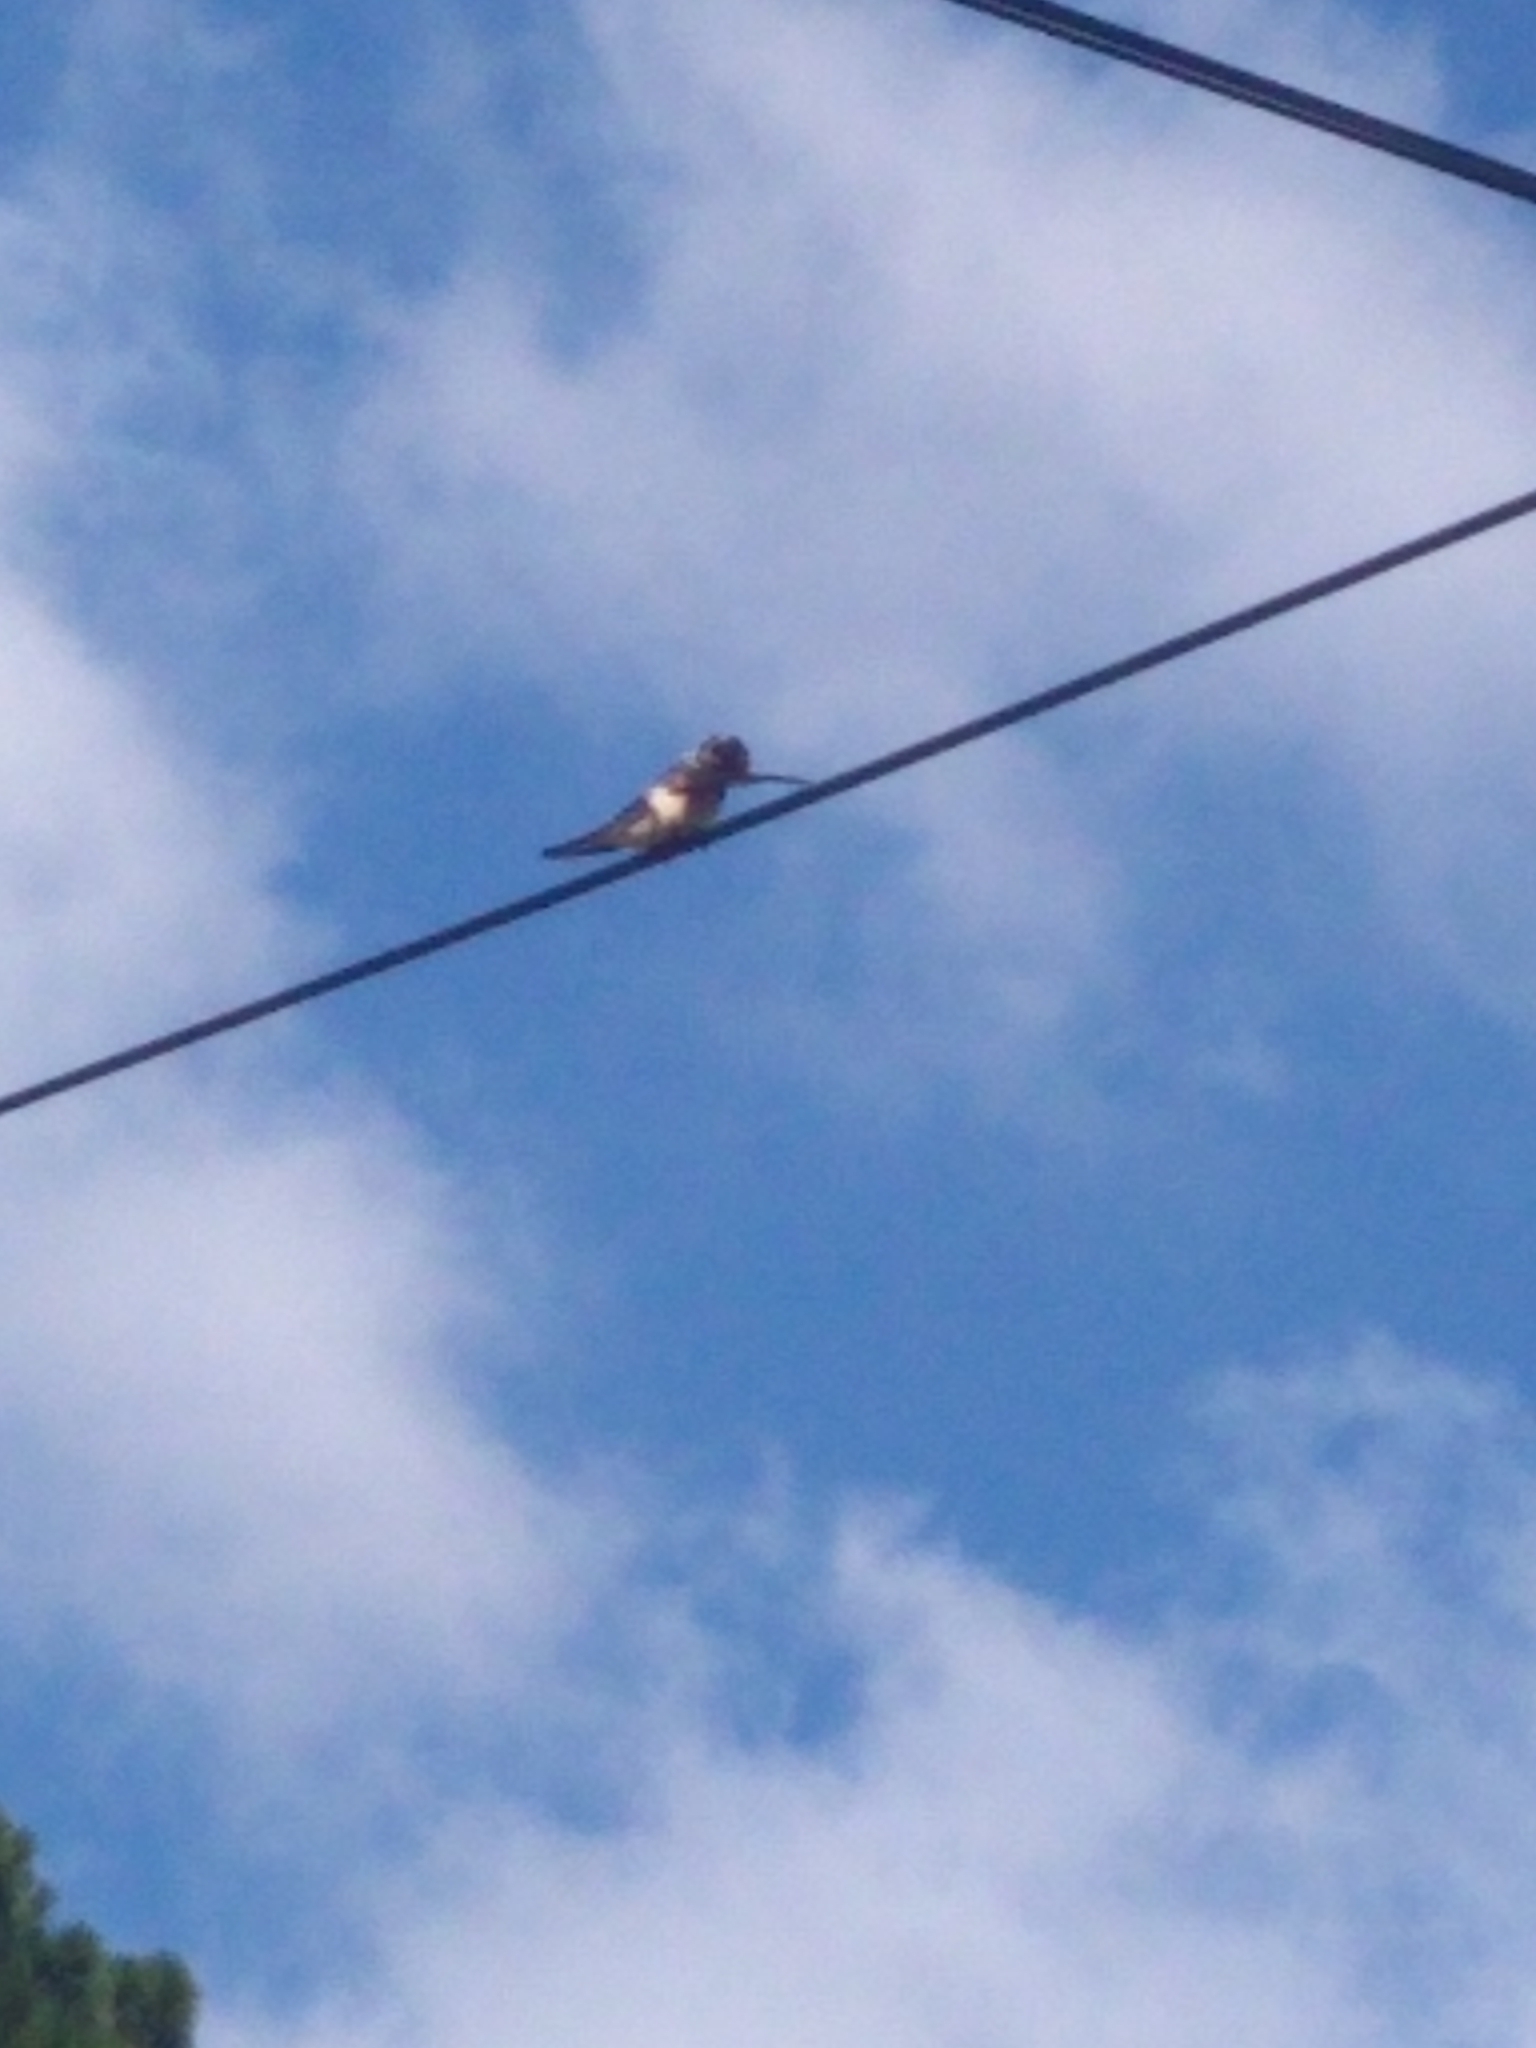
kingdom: Animalia
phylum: Chordata
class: Aves
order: Passeriformes
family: Hirundinidae
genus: Hirundo
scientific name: Hirundo rustica
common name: Barn swallow
